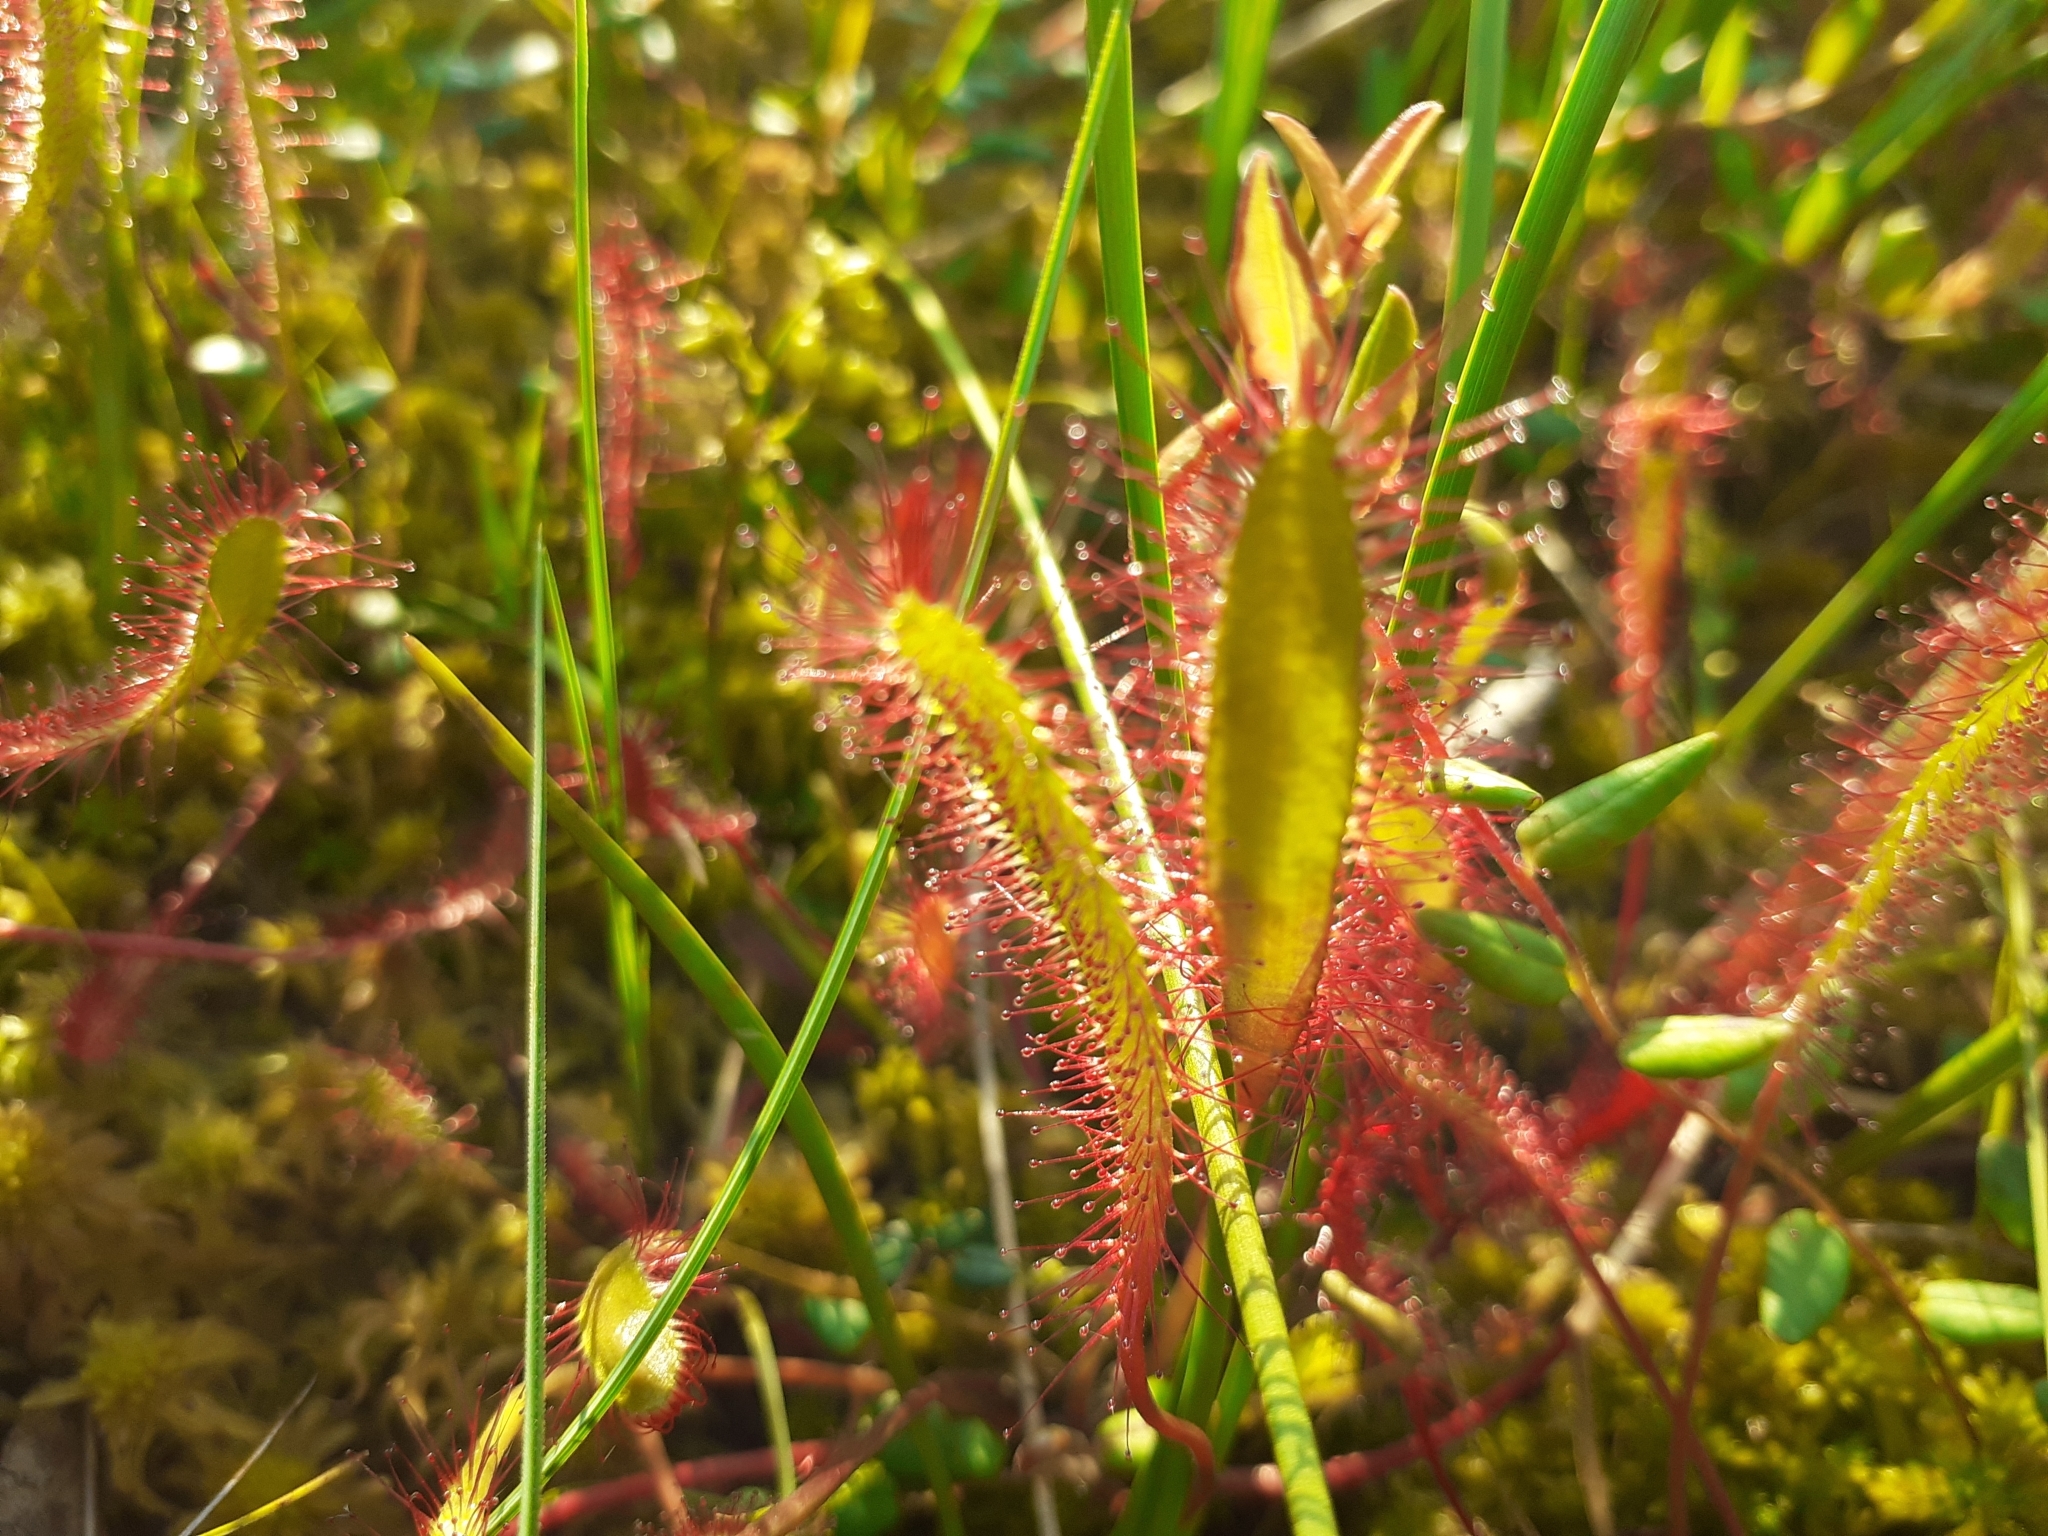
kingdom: Plantae
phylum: Tracheophyta
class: Magnoliopsida
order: Caryophyllales
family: Droseraceae
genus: Drosera
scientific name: Drosera anglica
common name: Great sundew
